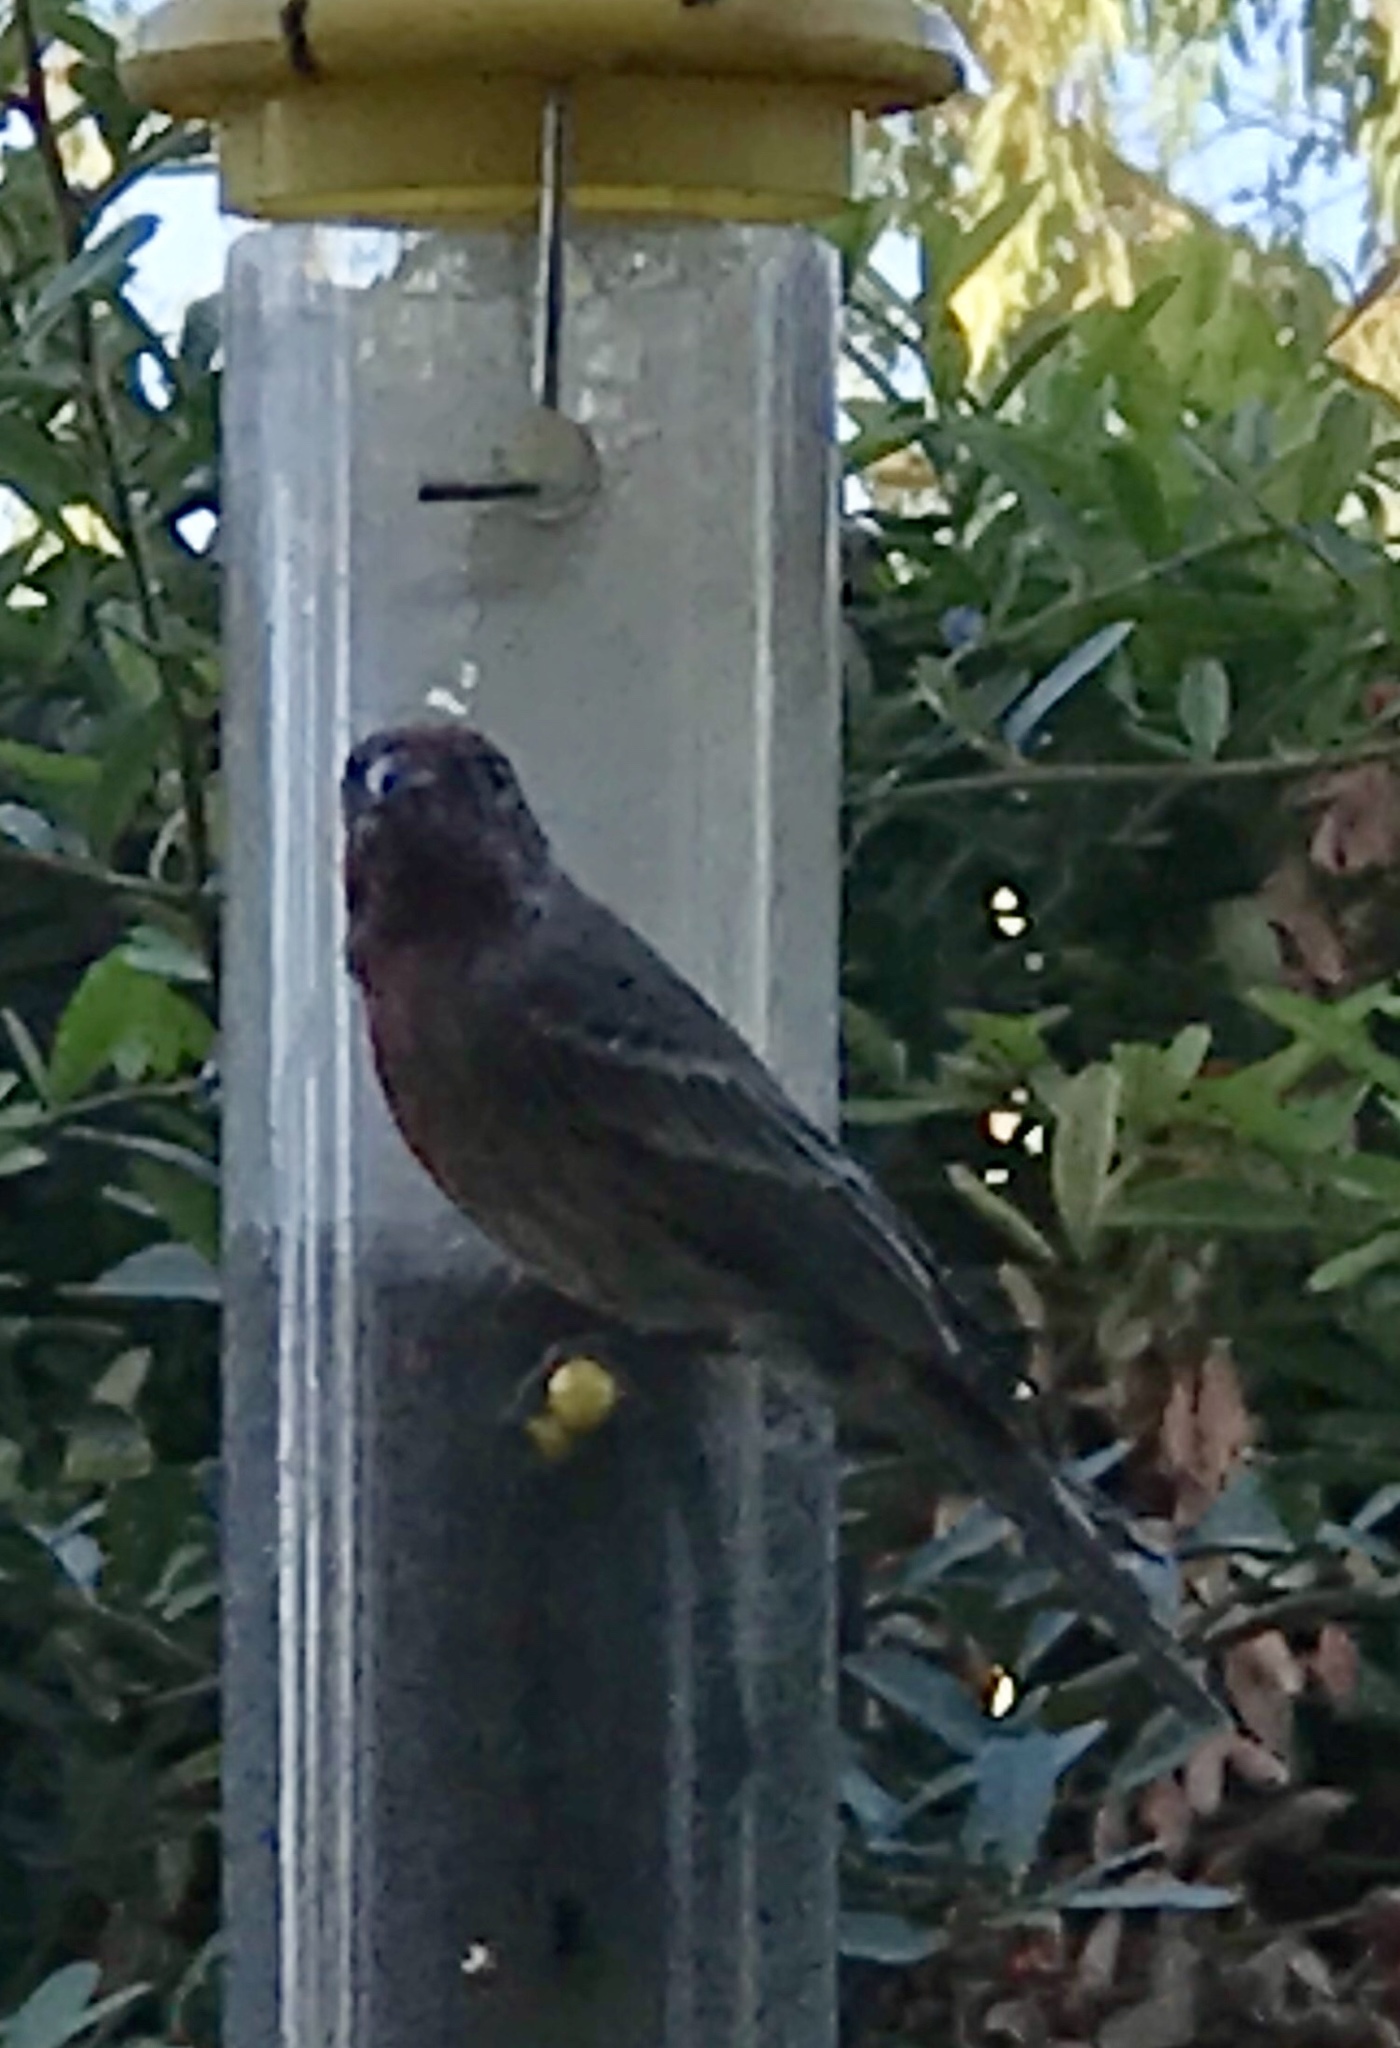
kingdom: Animalia
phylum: Chordata
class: Aves
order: Passeriformes
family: Fringillidae
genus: Haemorhous
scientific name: Haemorhous mexicanus
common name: House finch
